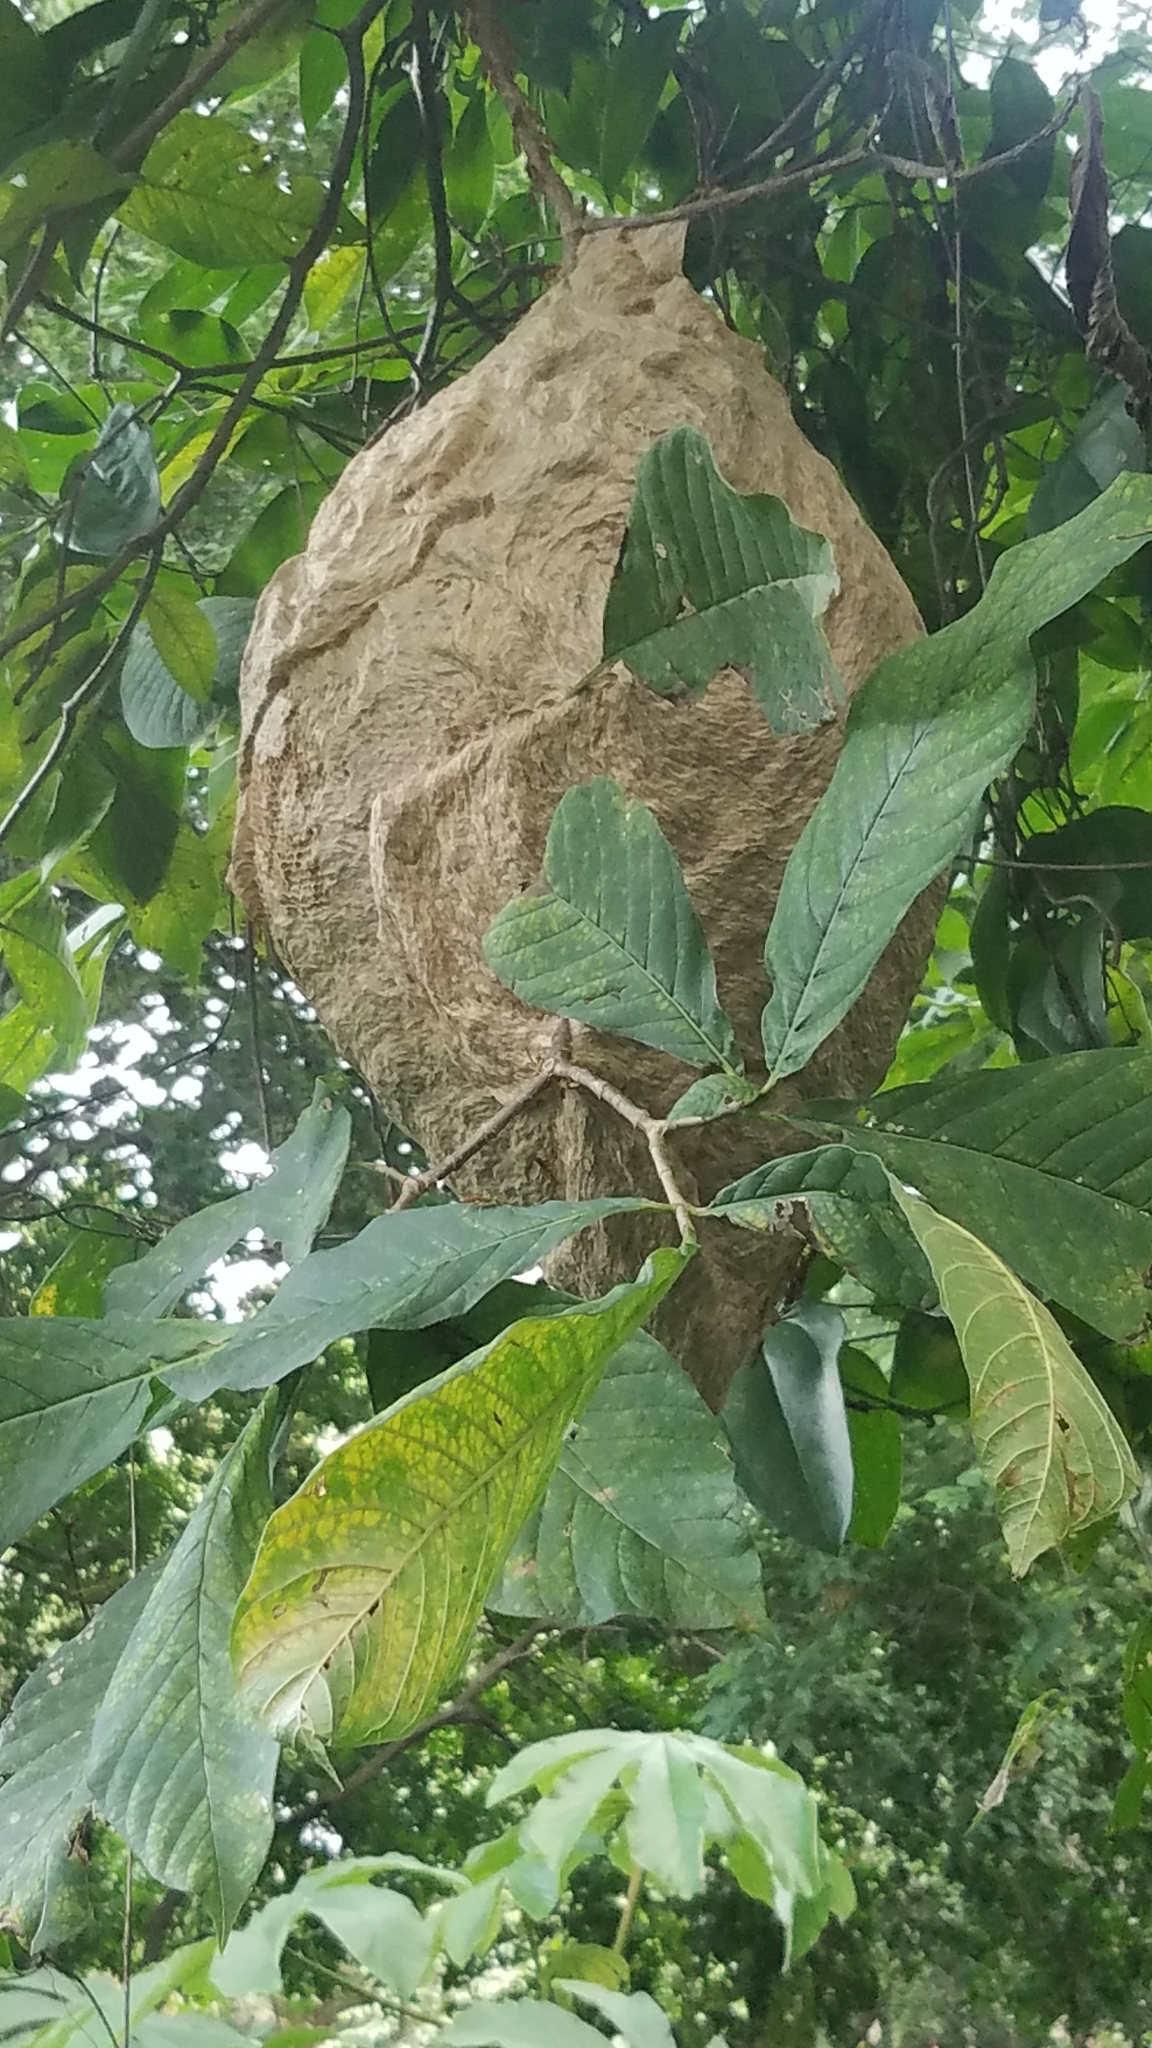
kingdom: Animalia
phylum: Arthropoda
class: Insecta
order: Hymenoptera
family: Vespidae
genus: Agelaia
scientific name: Agelaia areata
